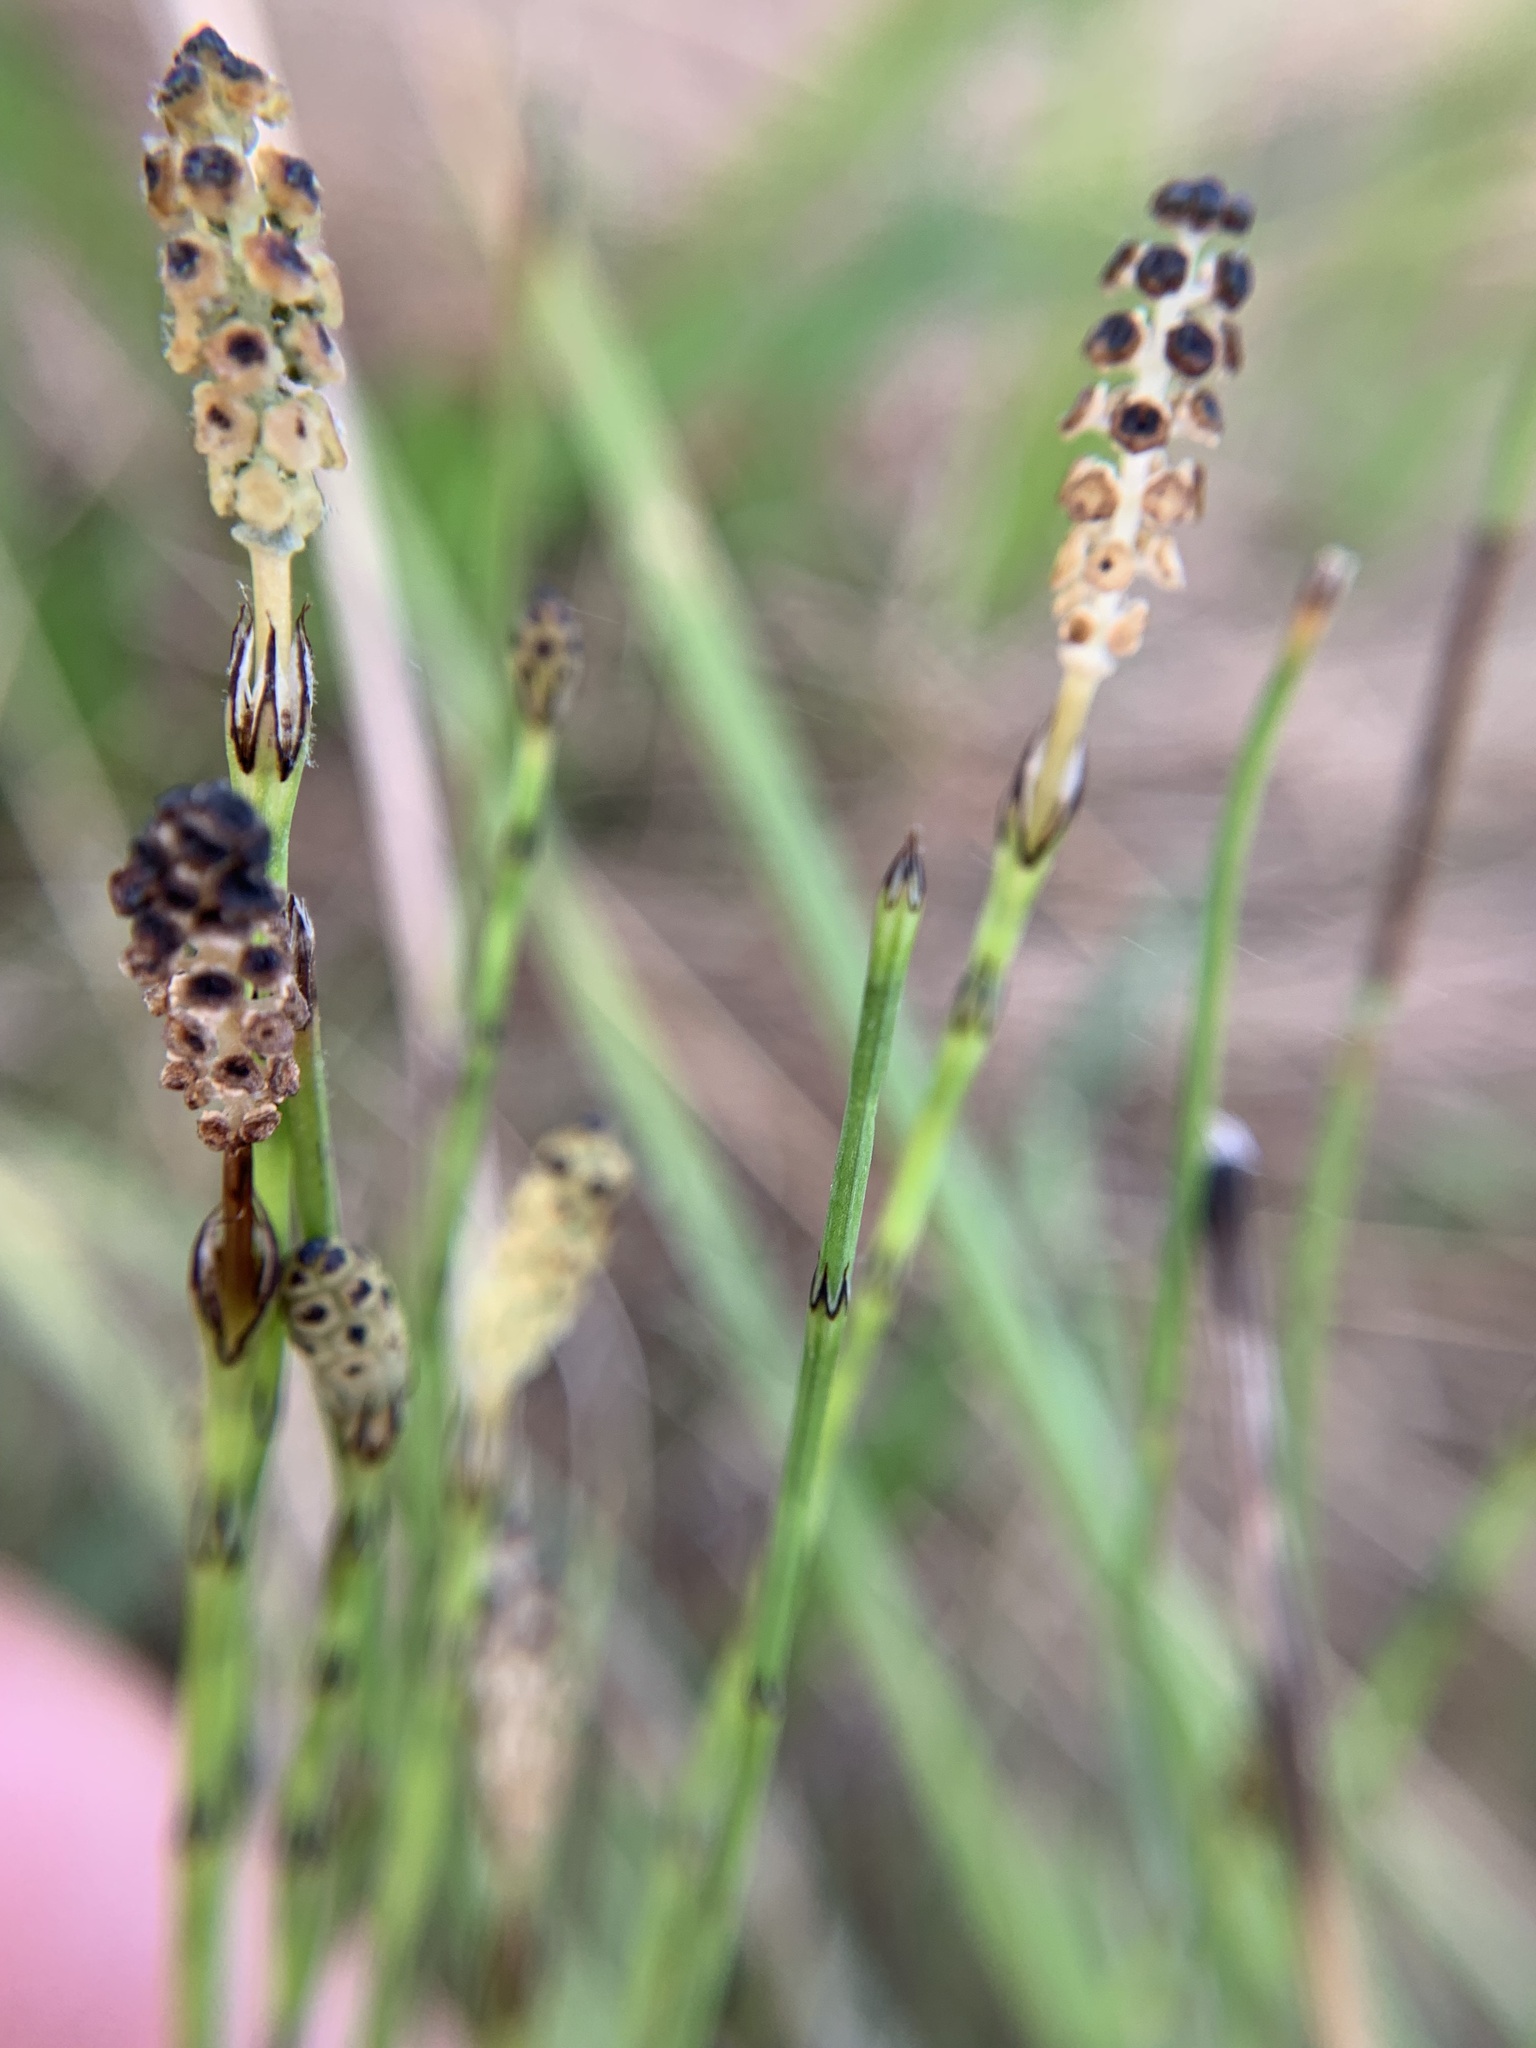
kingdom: Plantae
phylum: Tracheophyta
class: Polypodiopsida
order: Equisetales
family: Equisetaceae
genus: Equisetum
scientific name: Equisetum palustre
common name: Marsh horsetail
